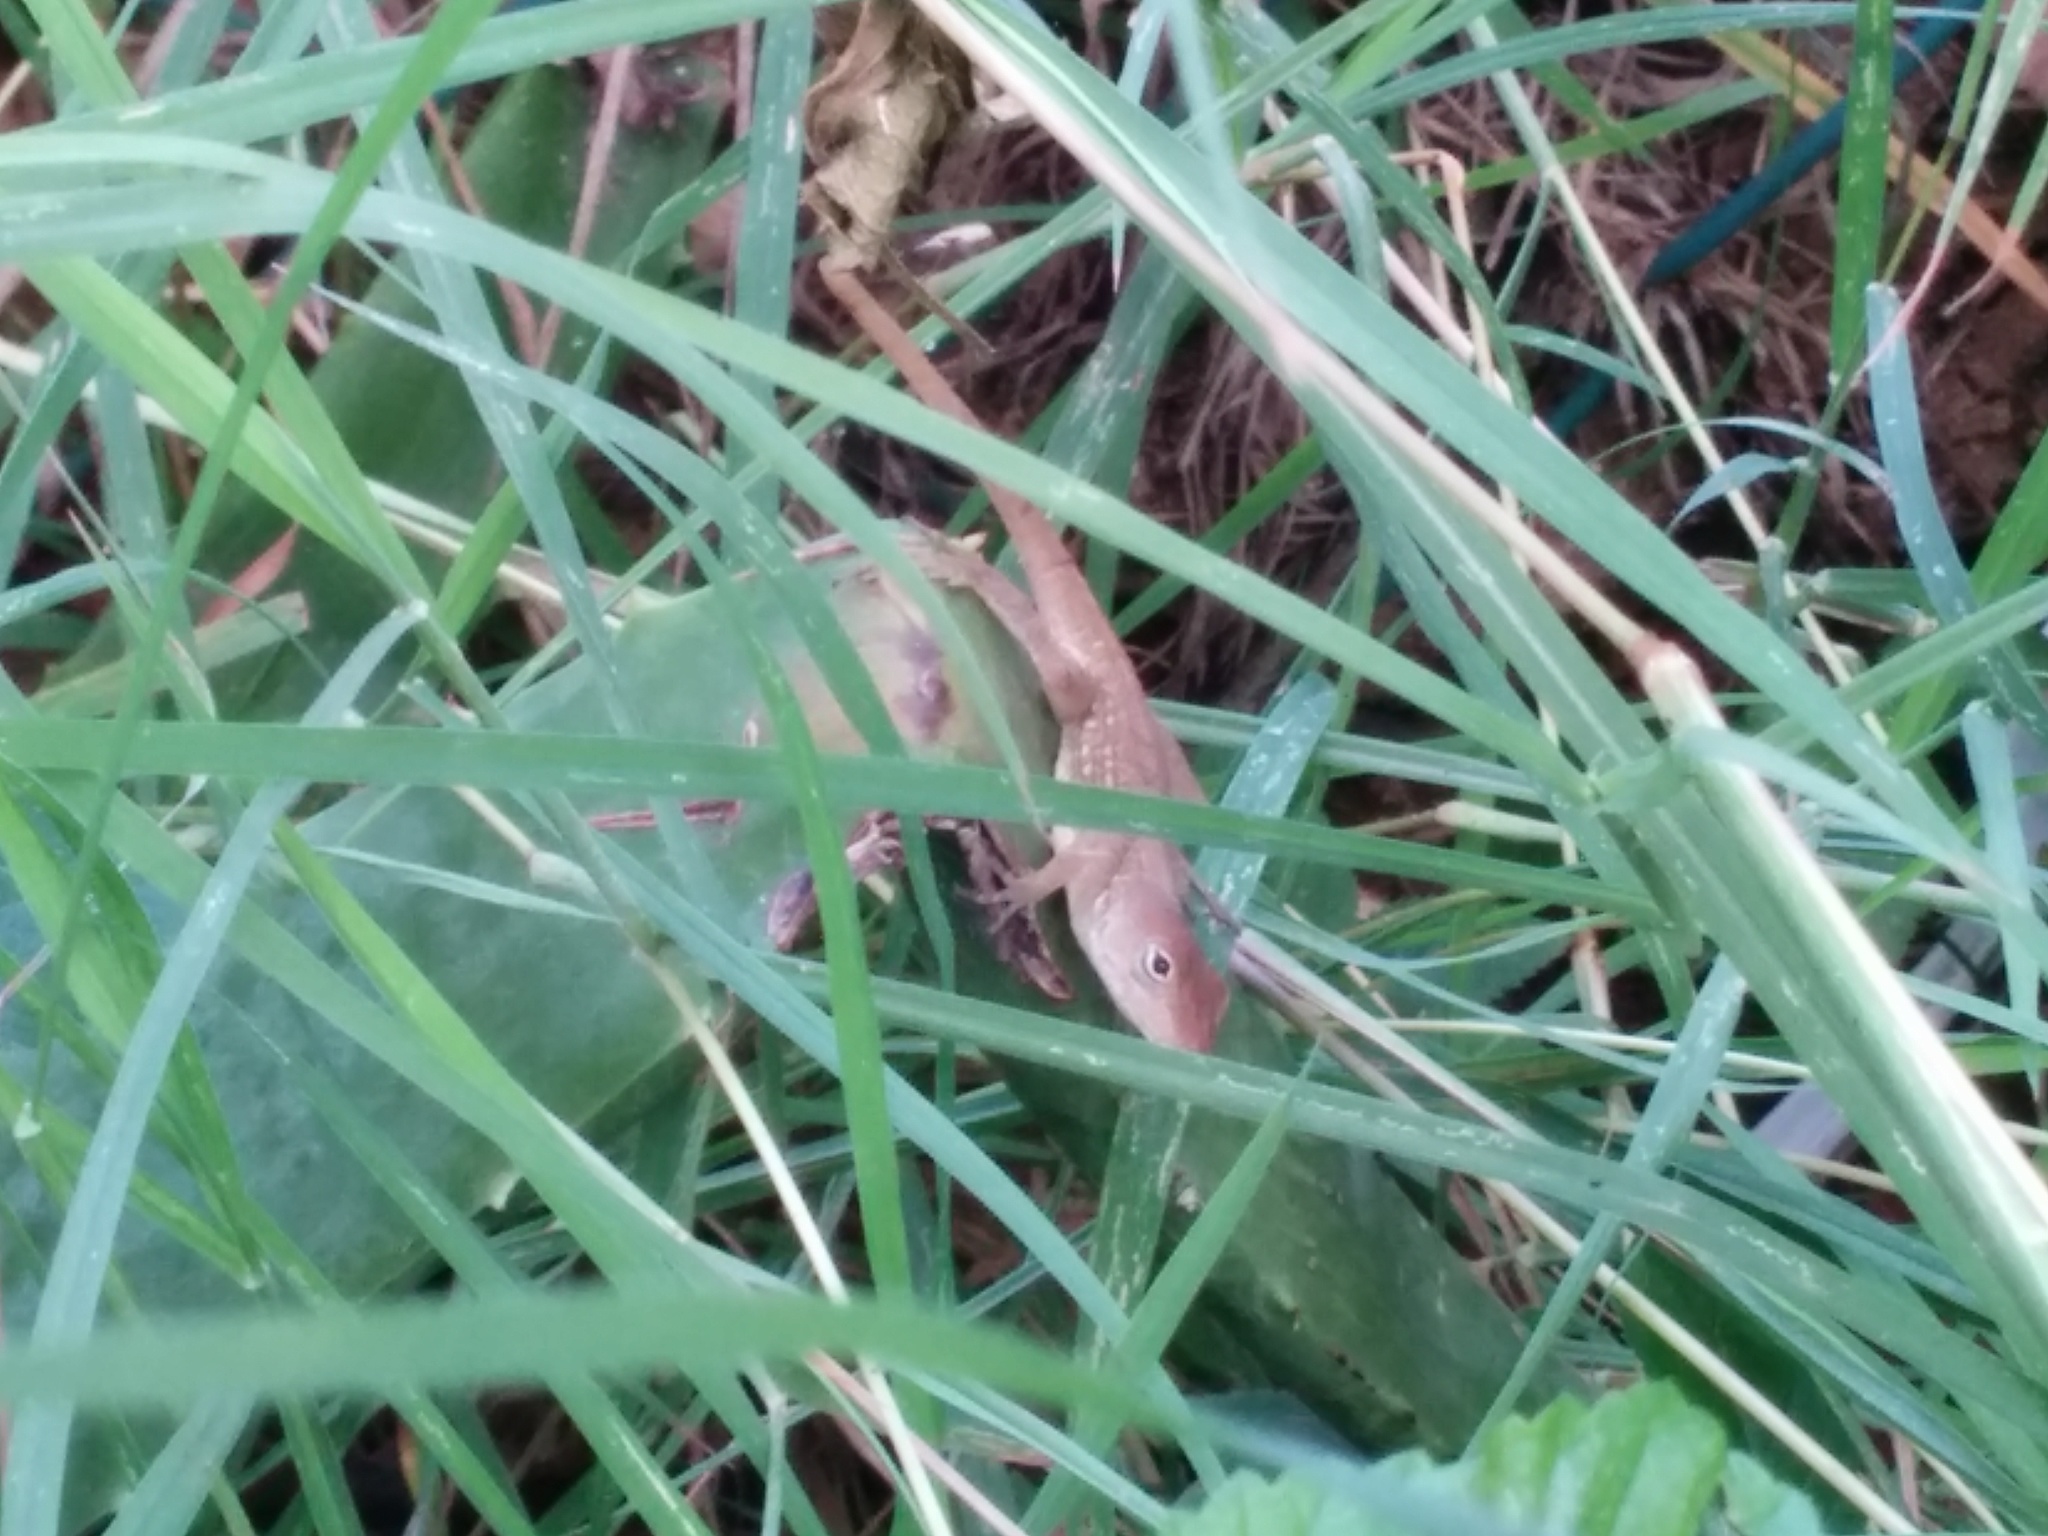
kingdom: Animalia
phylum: Chordata
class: Squamata
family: Dactyloidae
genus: Anolis
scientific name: Anolis lineatopus
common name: Stripefoot anole
